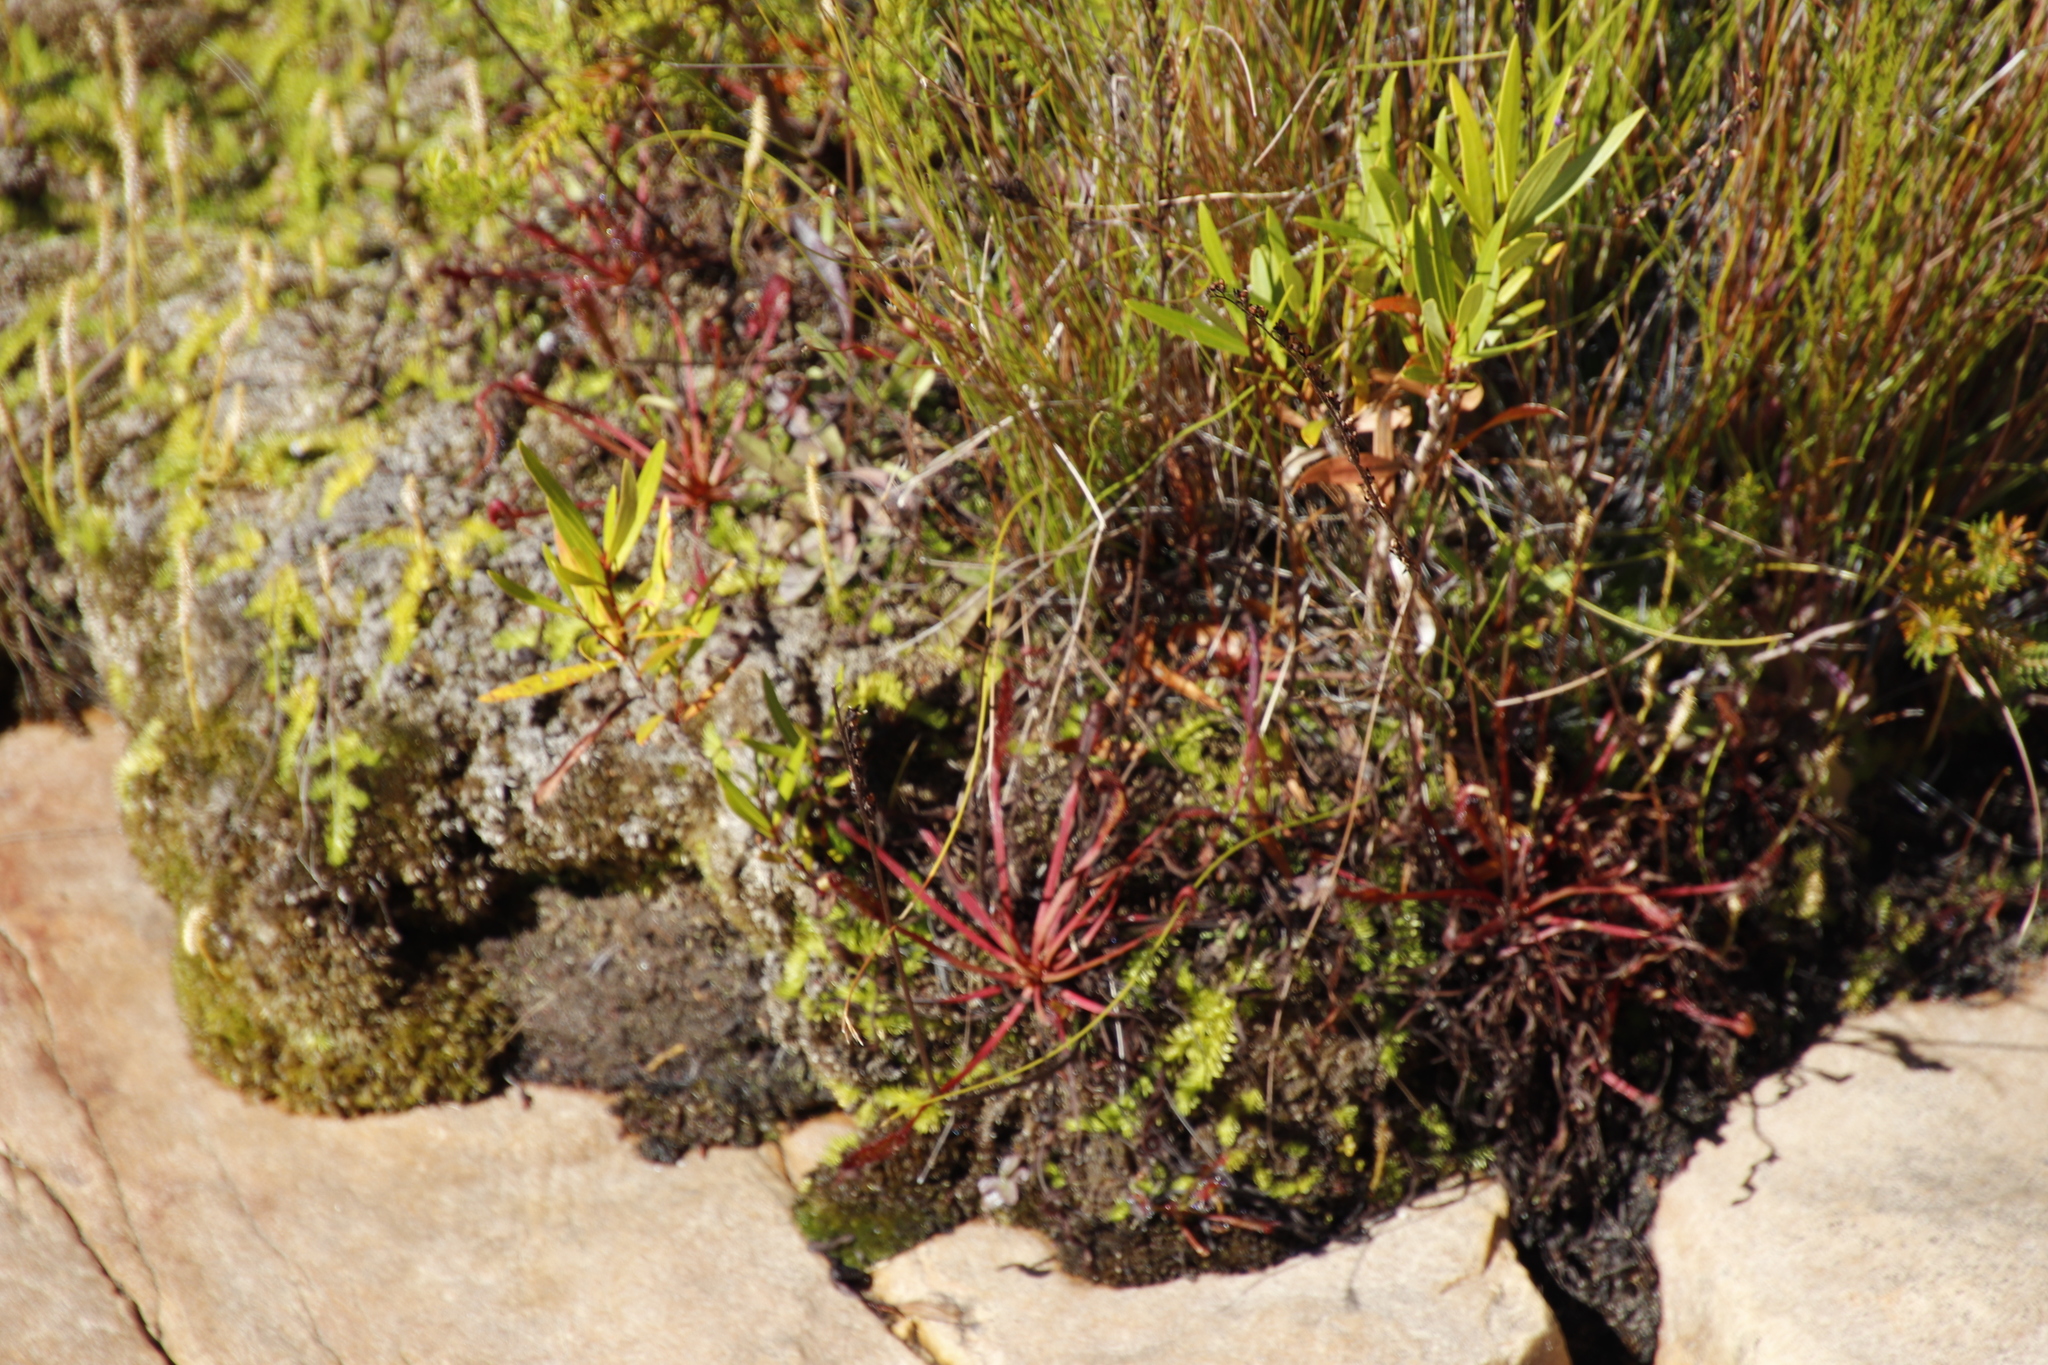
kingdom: Plantae
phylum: Tracheophyta
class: Magnoliopsida
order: Caryophyllales
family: Droseraceae
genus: Drosera
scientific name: Drosera capensis
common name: Cape sundew
